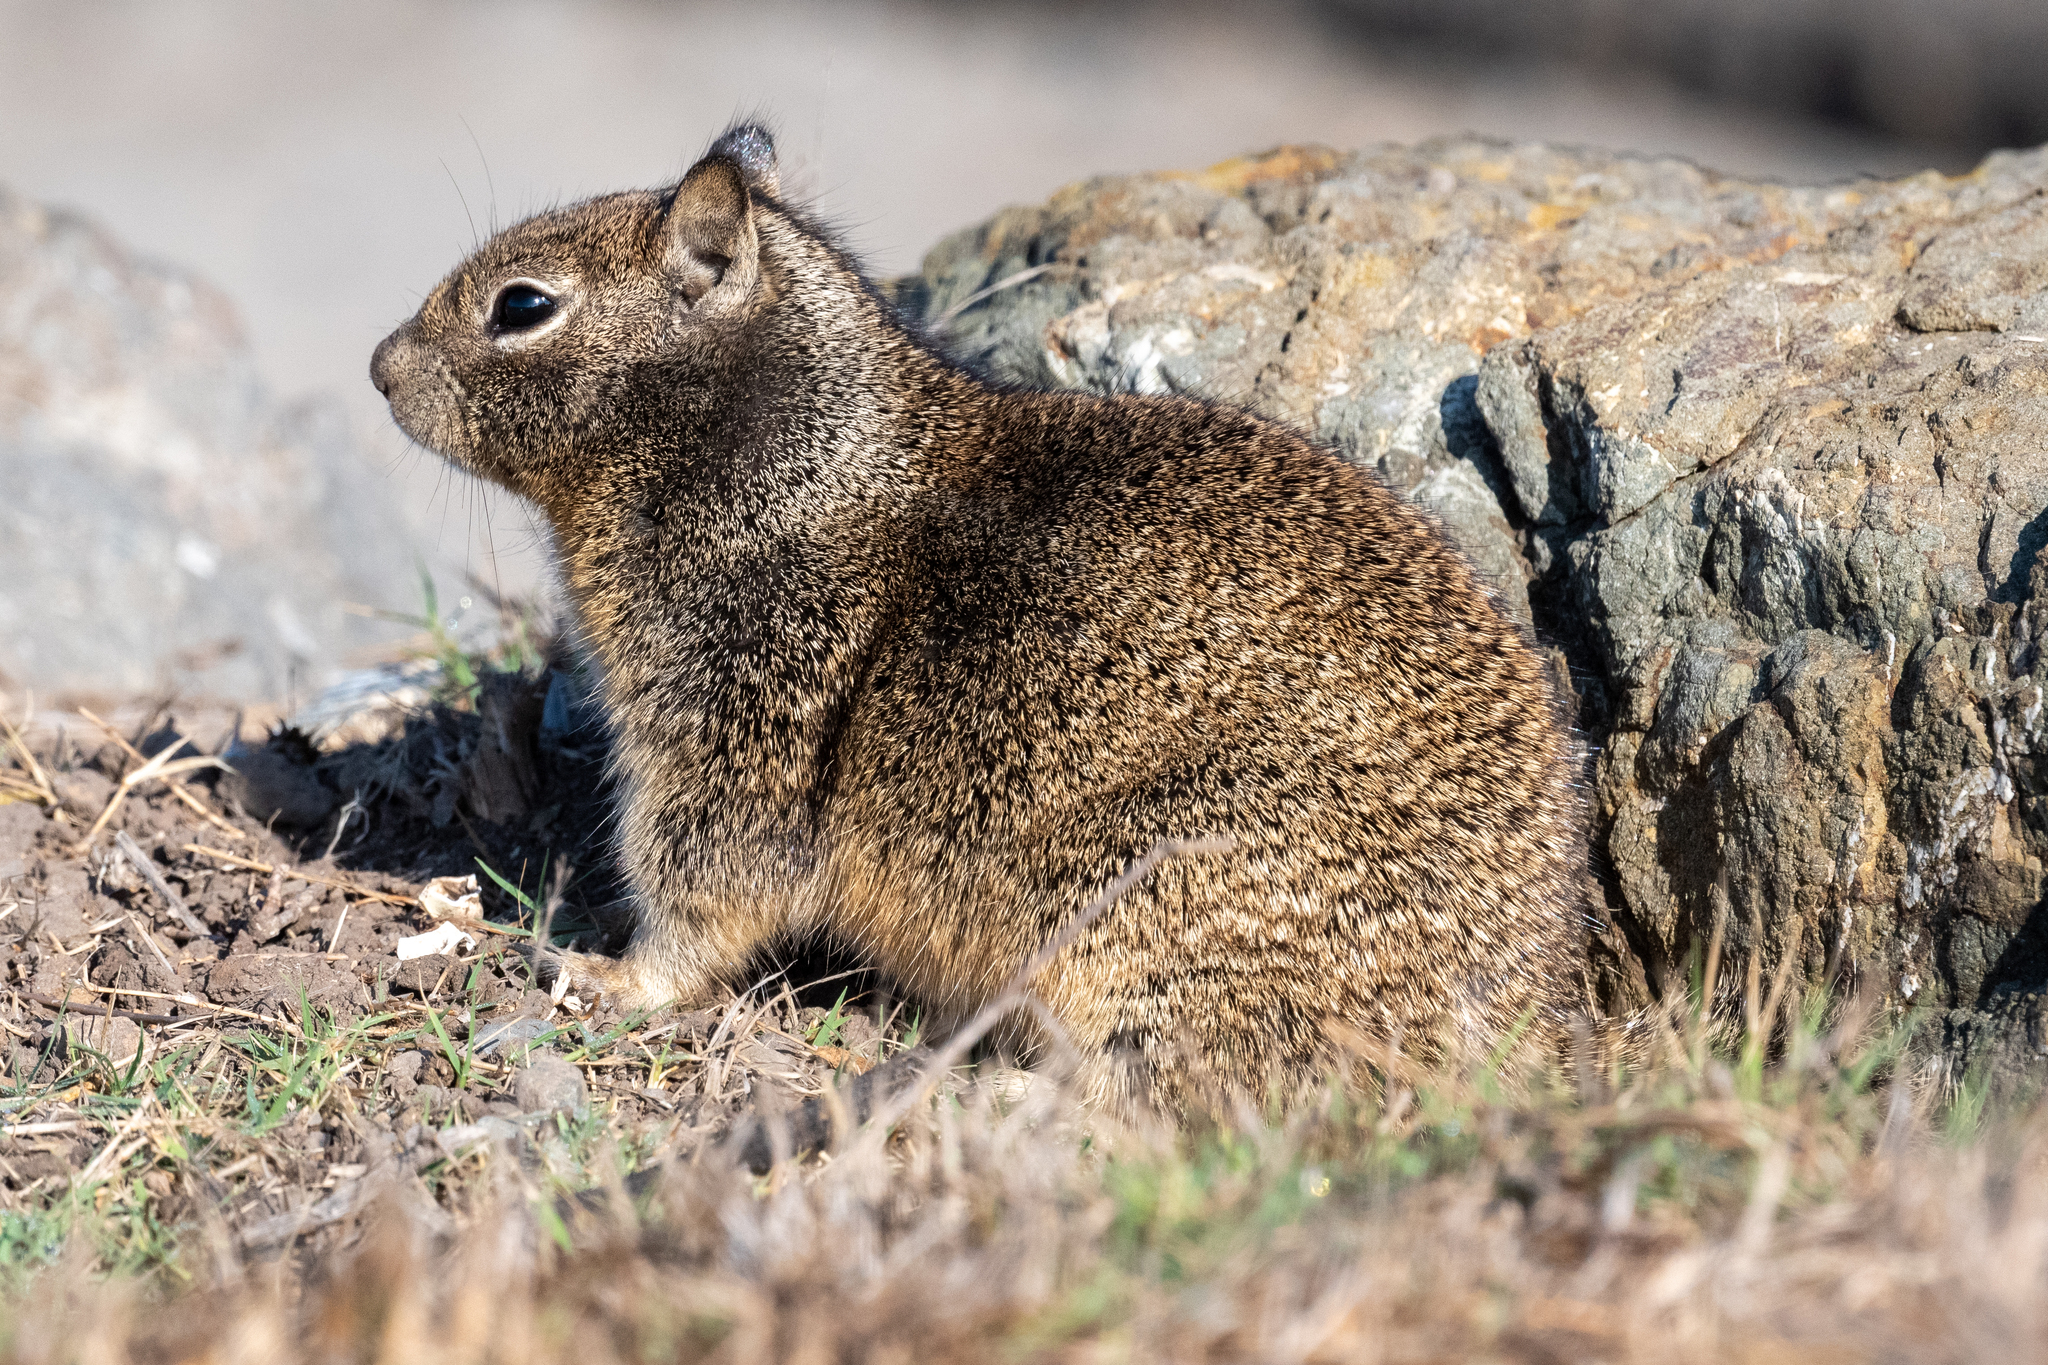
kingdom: Animalia
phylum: Chordata
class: Mammalia
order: Rodentia
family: Sciuridae
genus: Otospermophilus
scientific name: Otospermophilus beecheyi
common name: California ground squirrel
